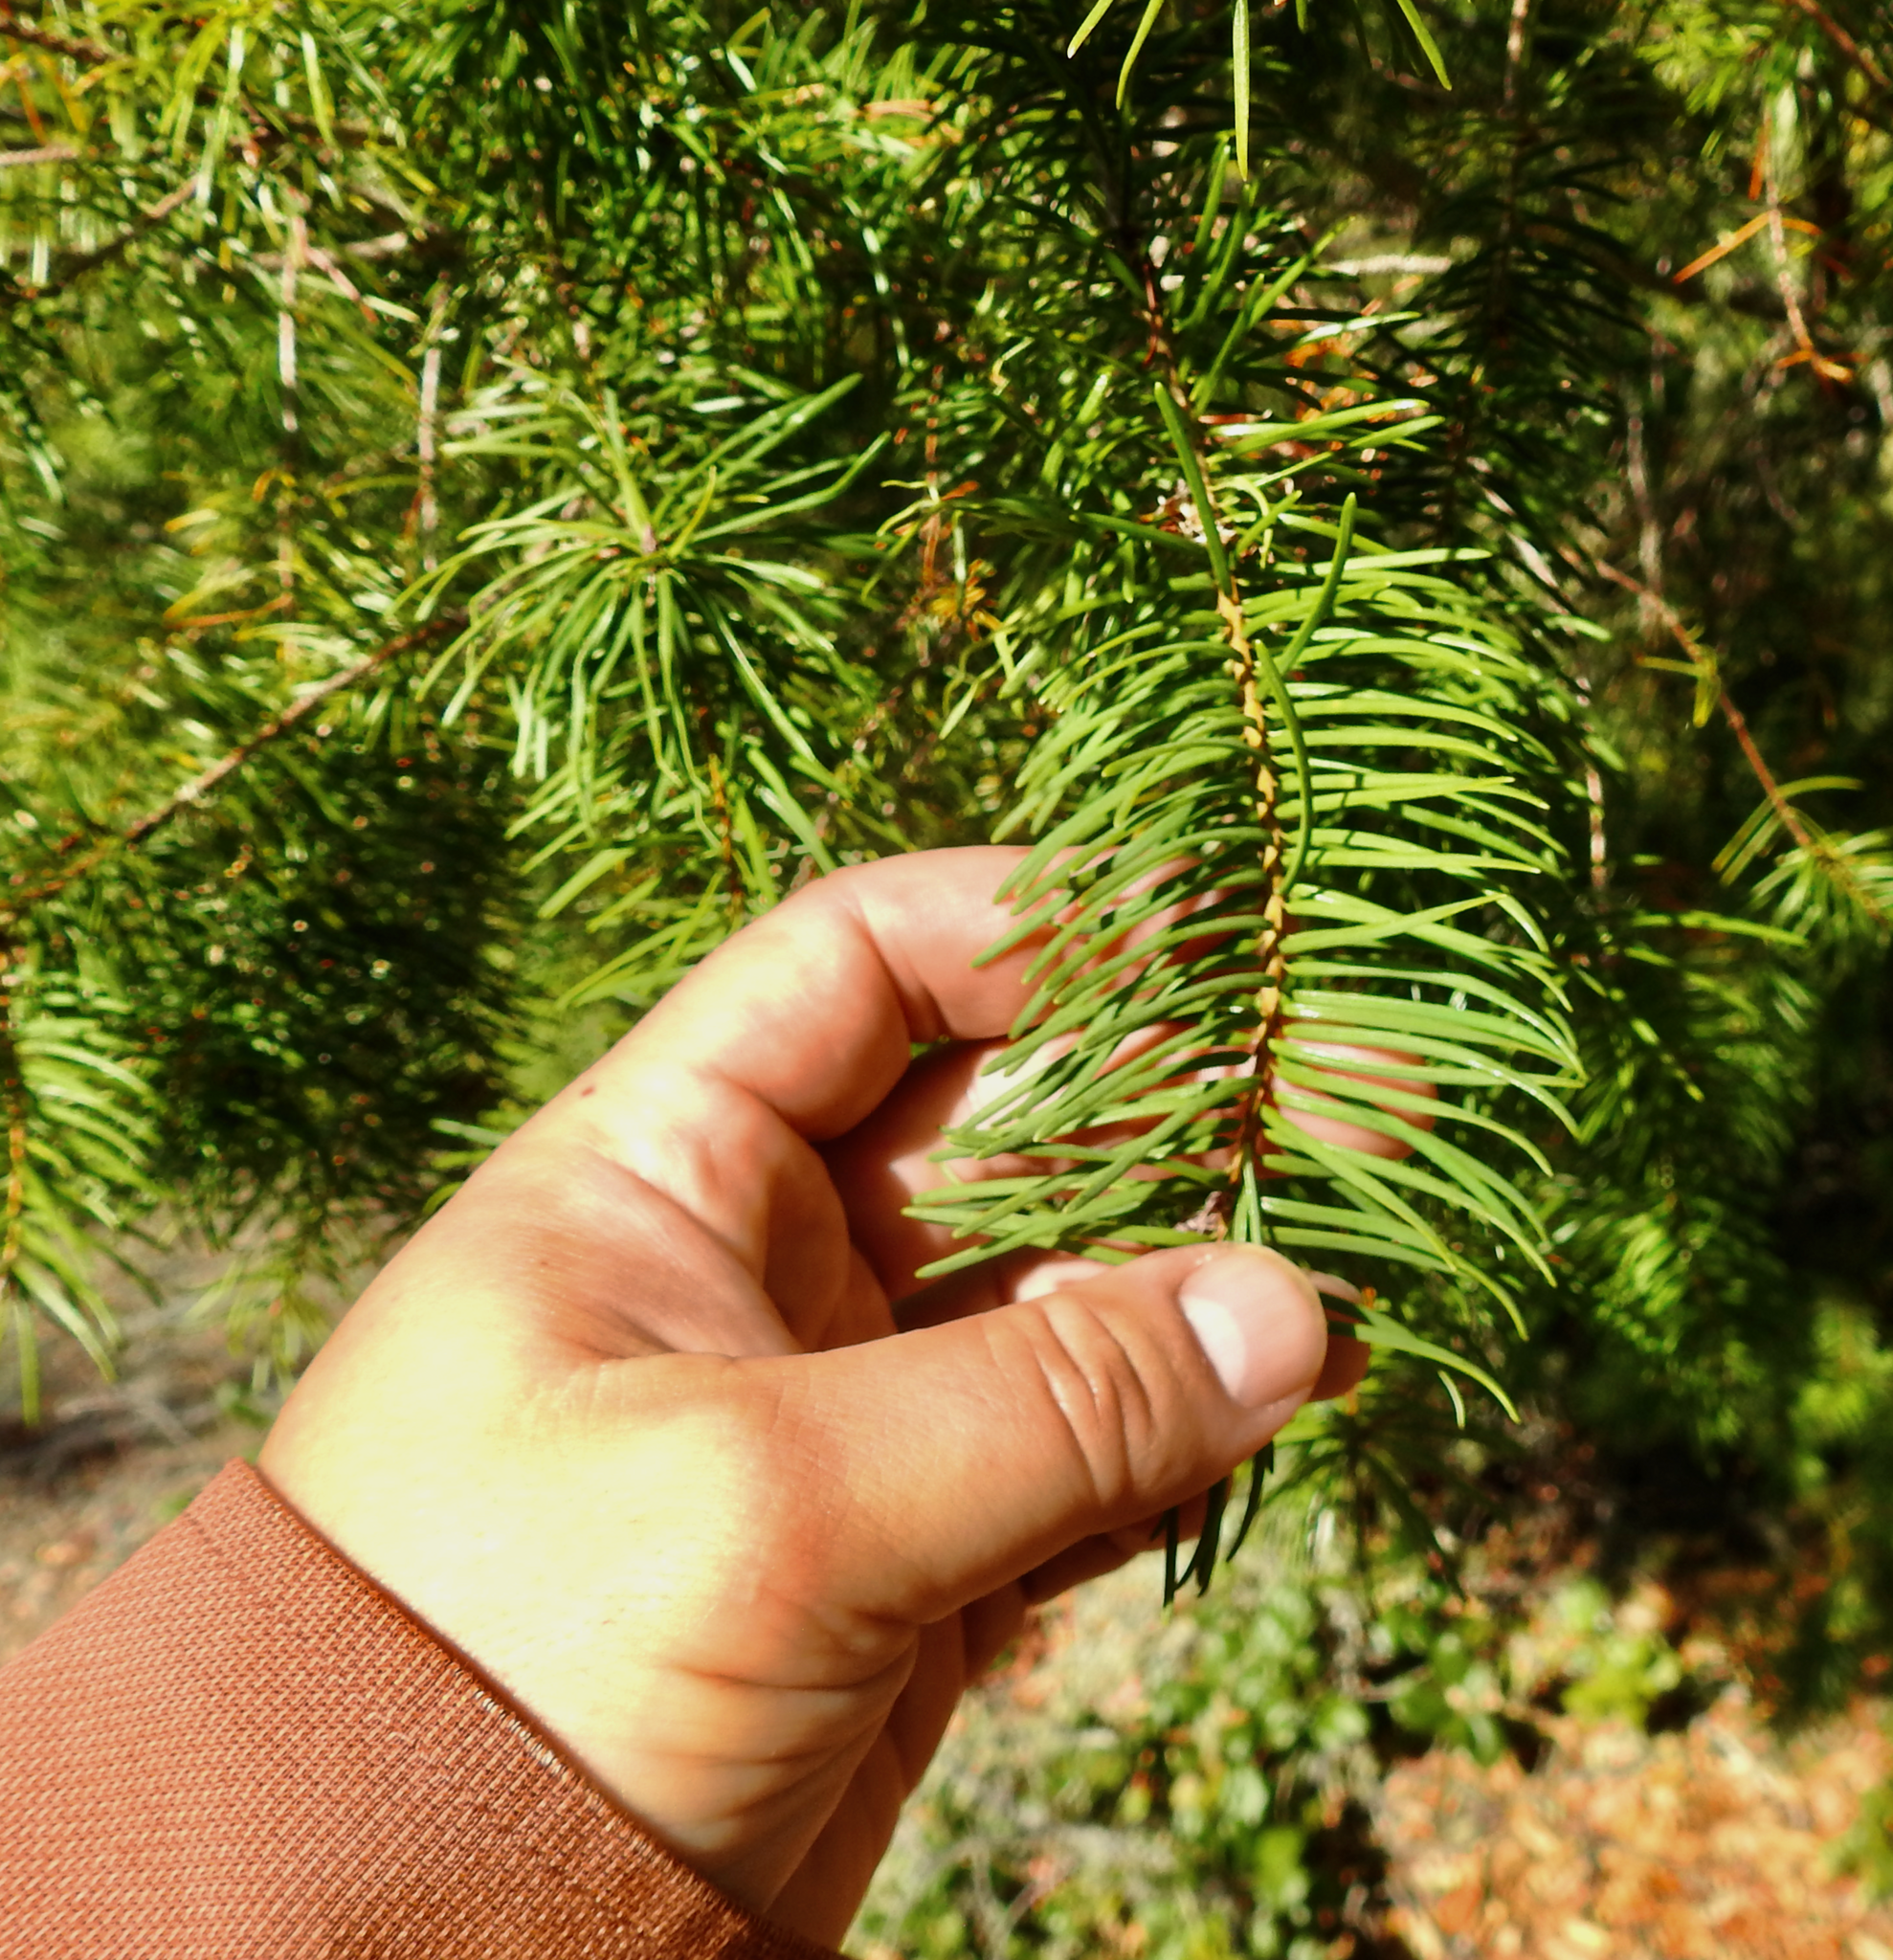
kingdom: Plantae
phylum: Tracheophyta
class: Pinopsida
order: Pinales
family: Pinaceae
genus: Pseudotsuga
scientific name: Pseudotsuga menziesii
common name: Douglas fir
